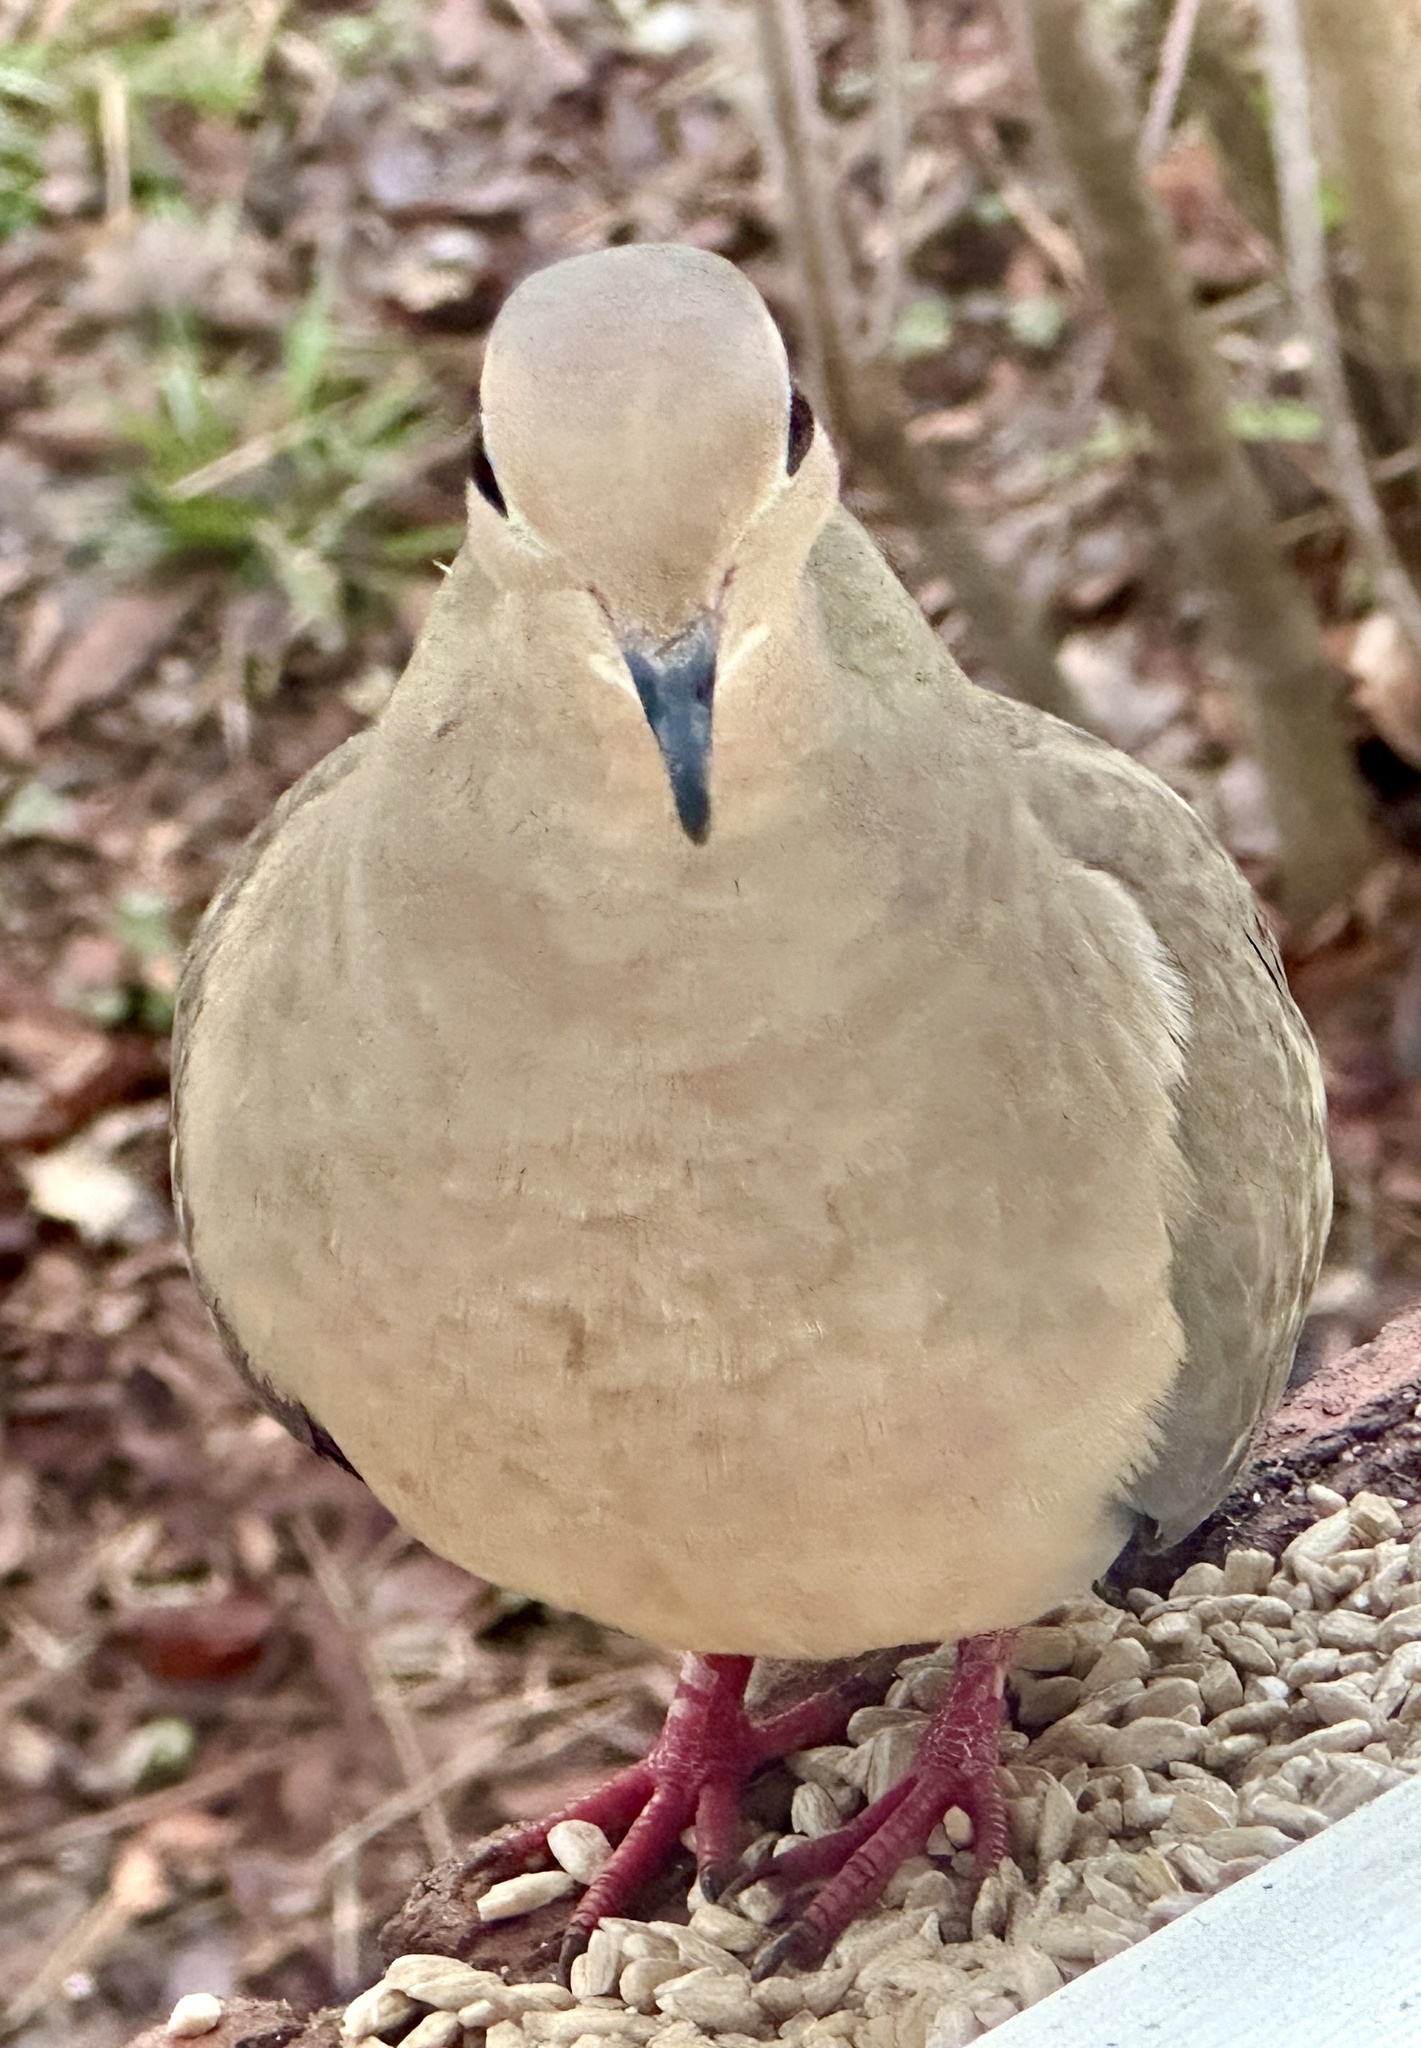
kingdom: Animalia
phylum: Chordata
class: Aves
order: Columbiformes
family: Columbidae
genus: Zenaida
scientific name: Zenaida macroura
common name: Mourning dove
